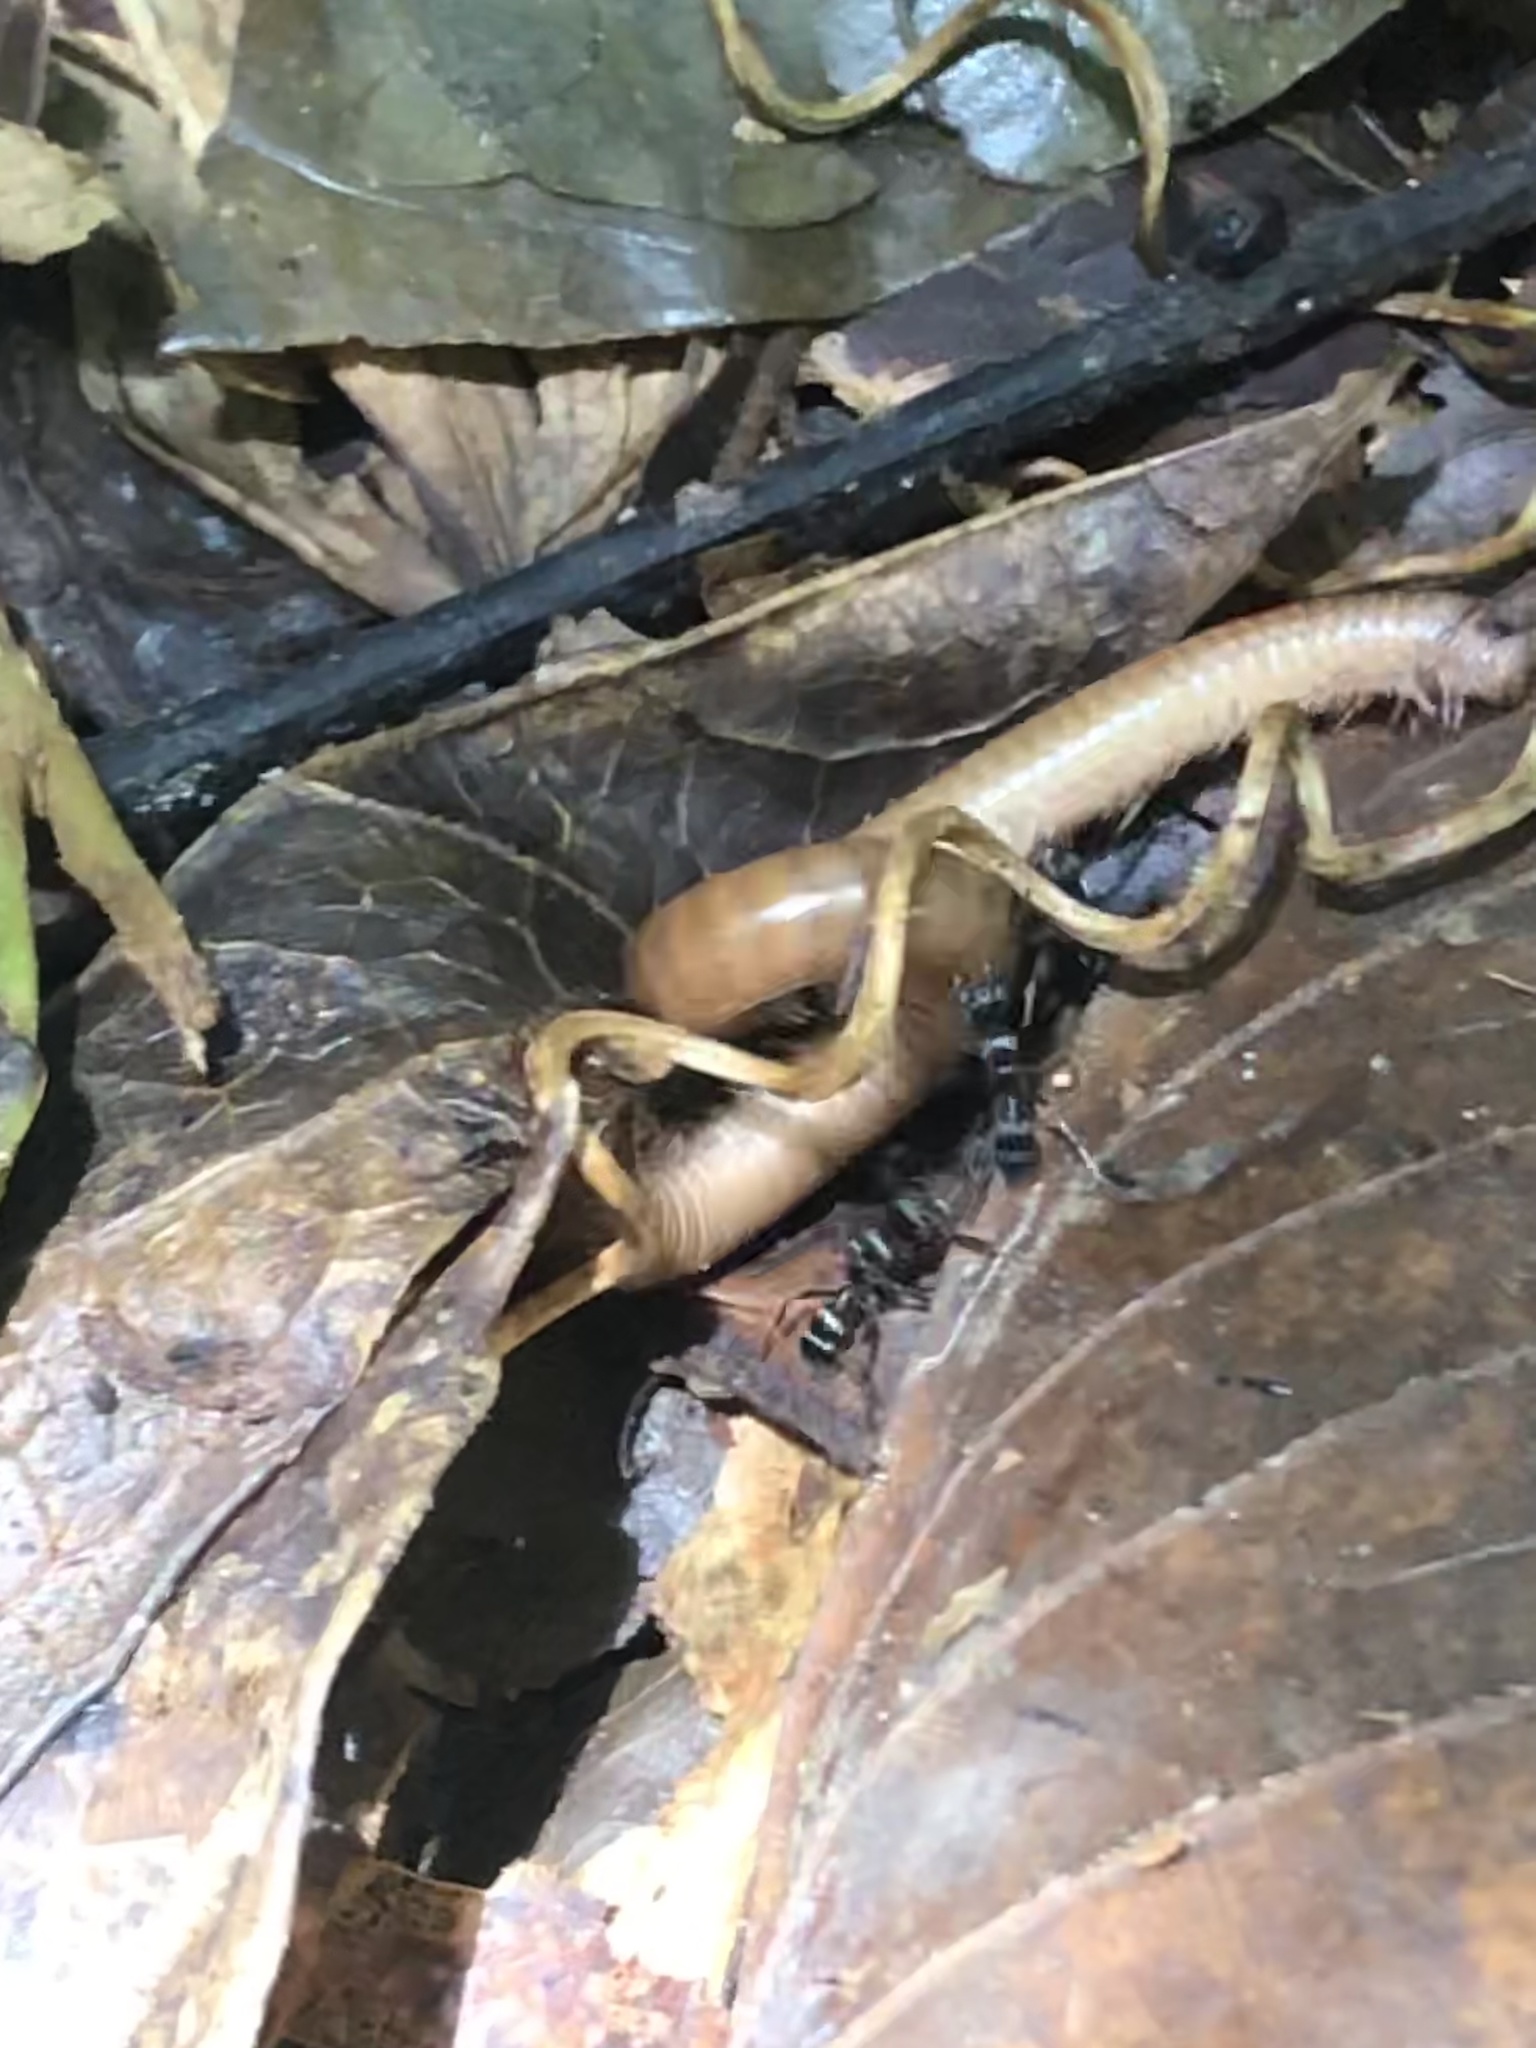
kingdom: Animalia
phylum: Arthropoda
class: Insecta
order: Hymenoptera
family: Formicidae
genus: Poneracantha
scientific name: Poneracantha
